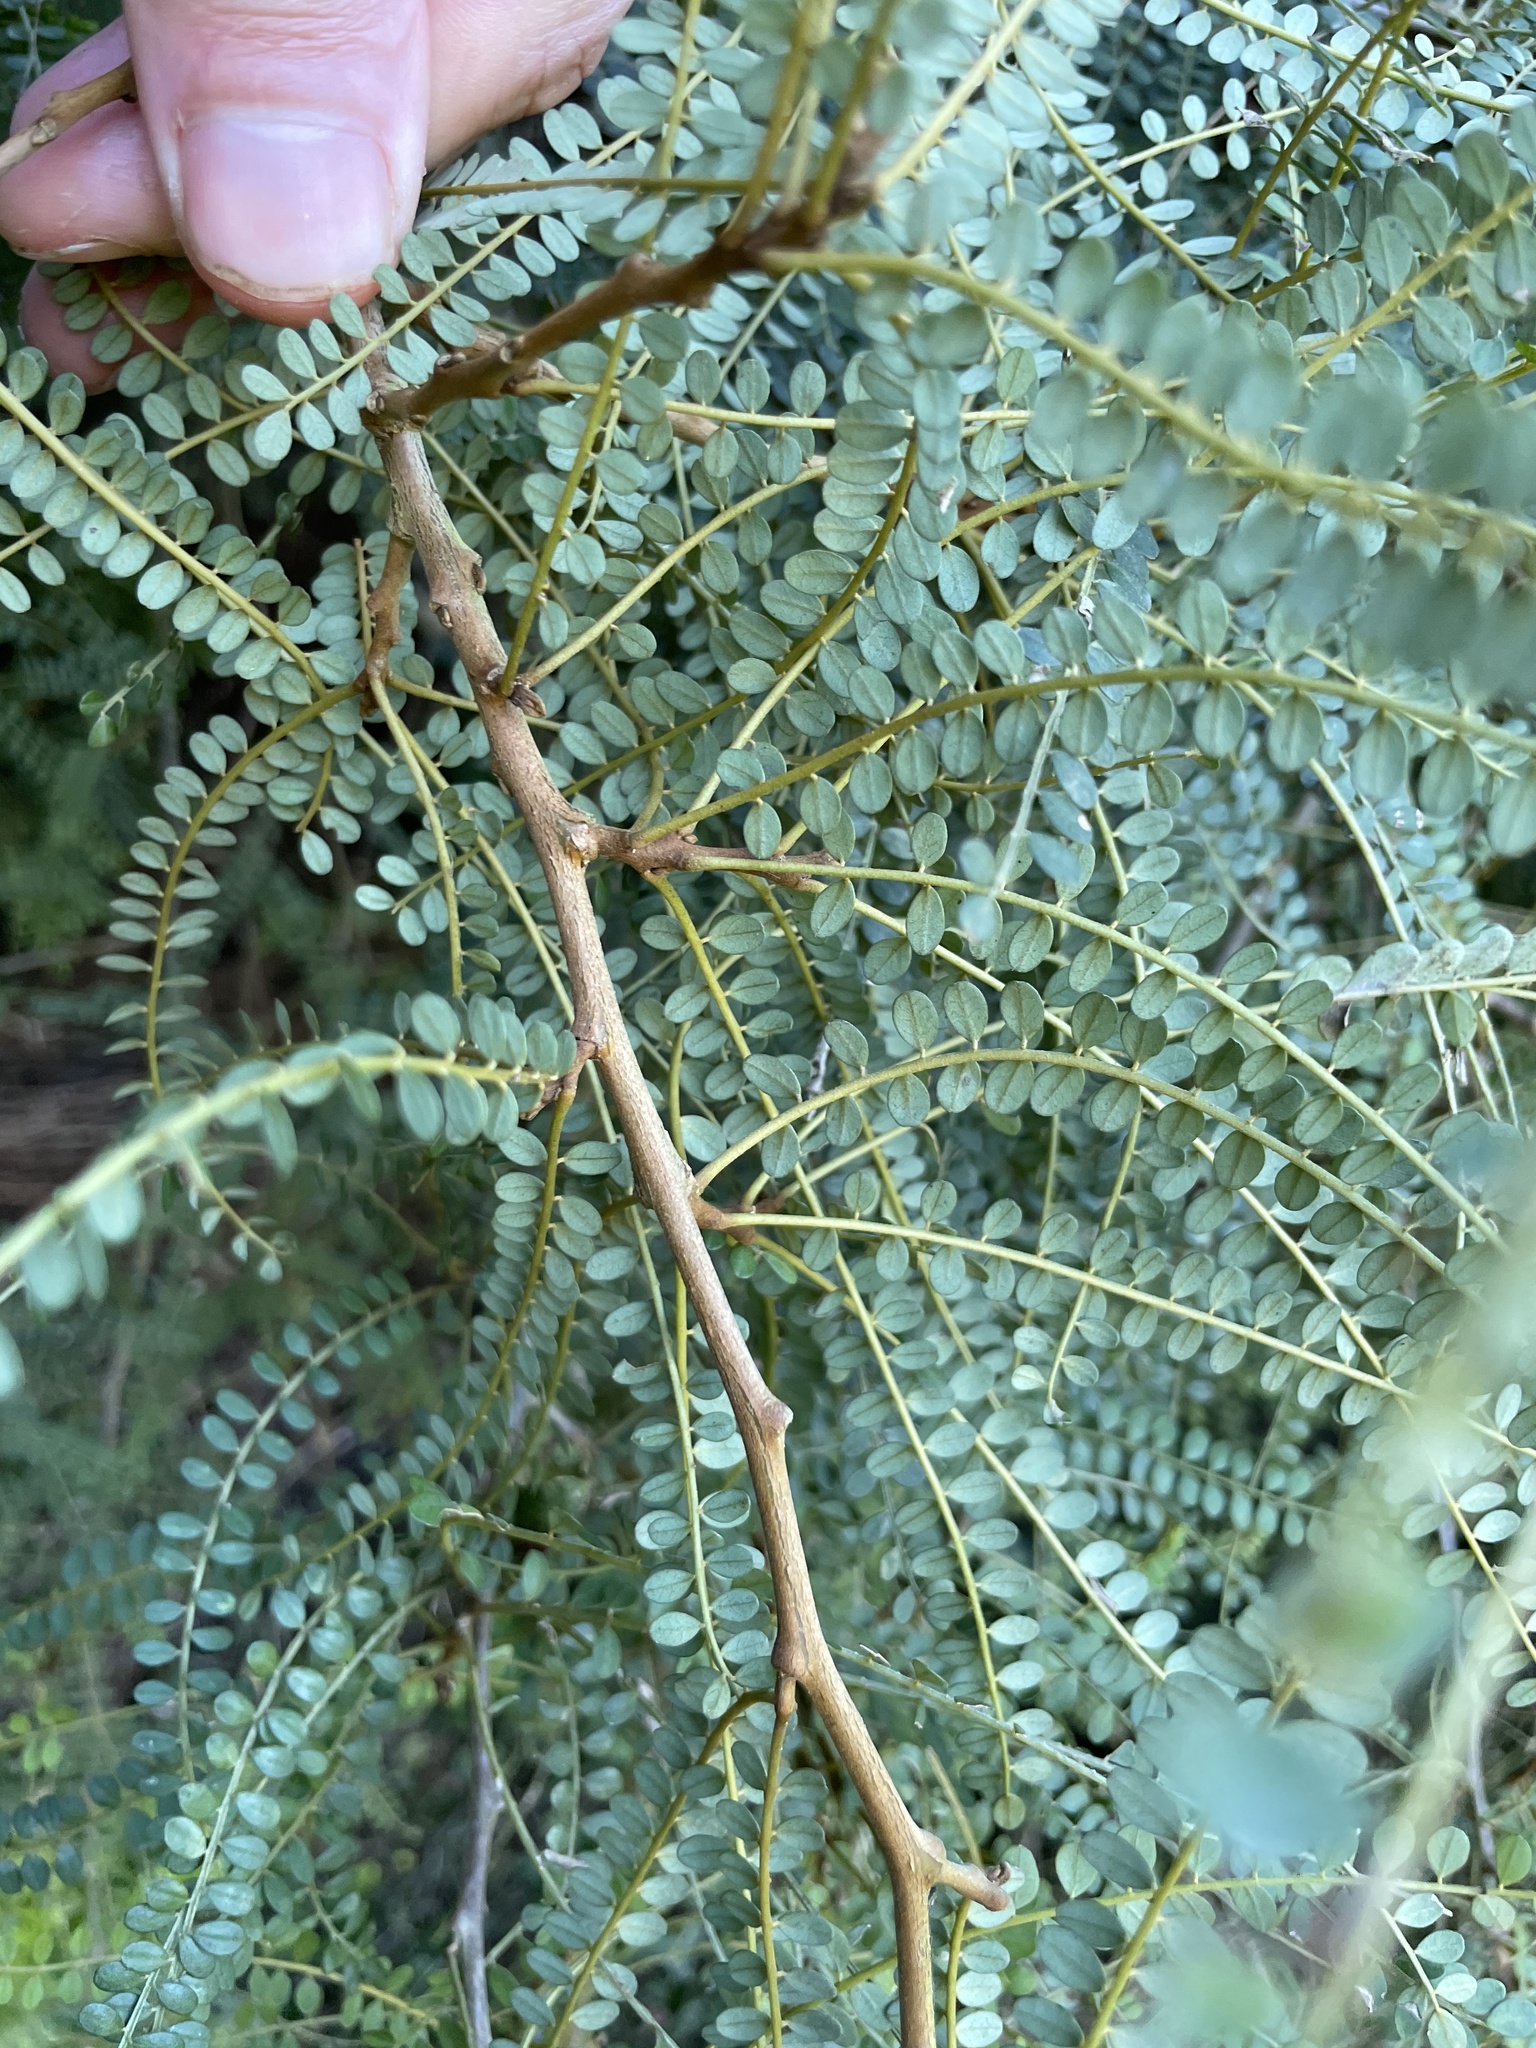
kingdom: Plantae
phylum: Tracheophyta
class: Magnoliopsida
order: Fabales
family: Fabaceae
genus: Sophora
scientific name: Sophora microphylla
